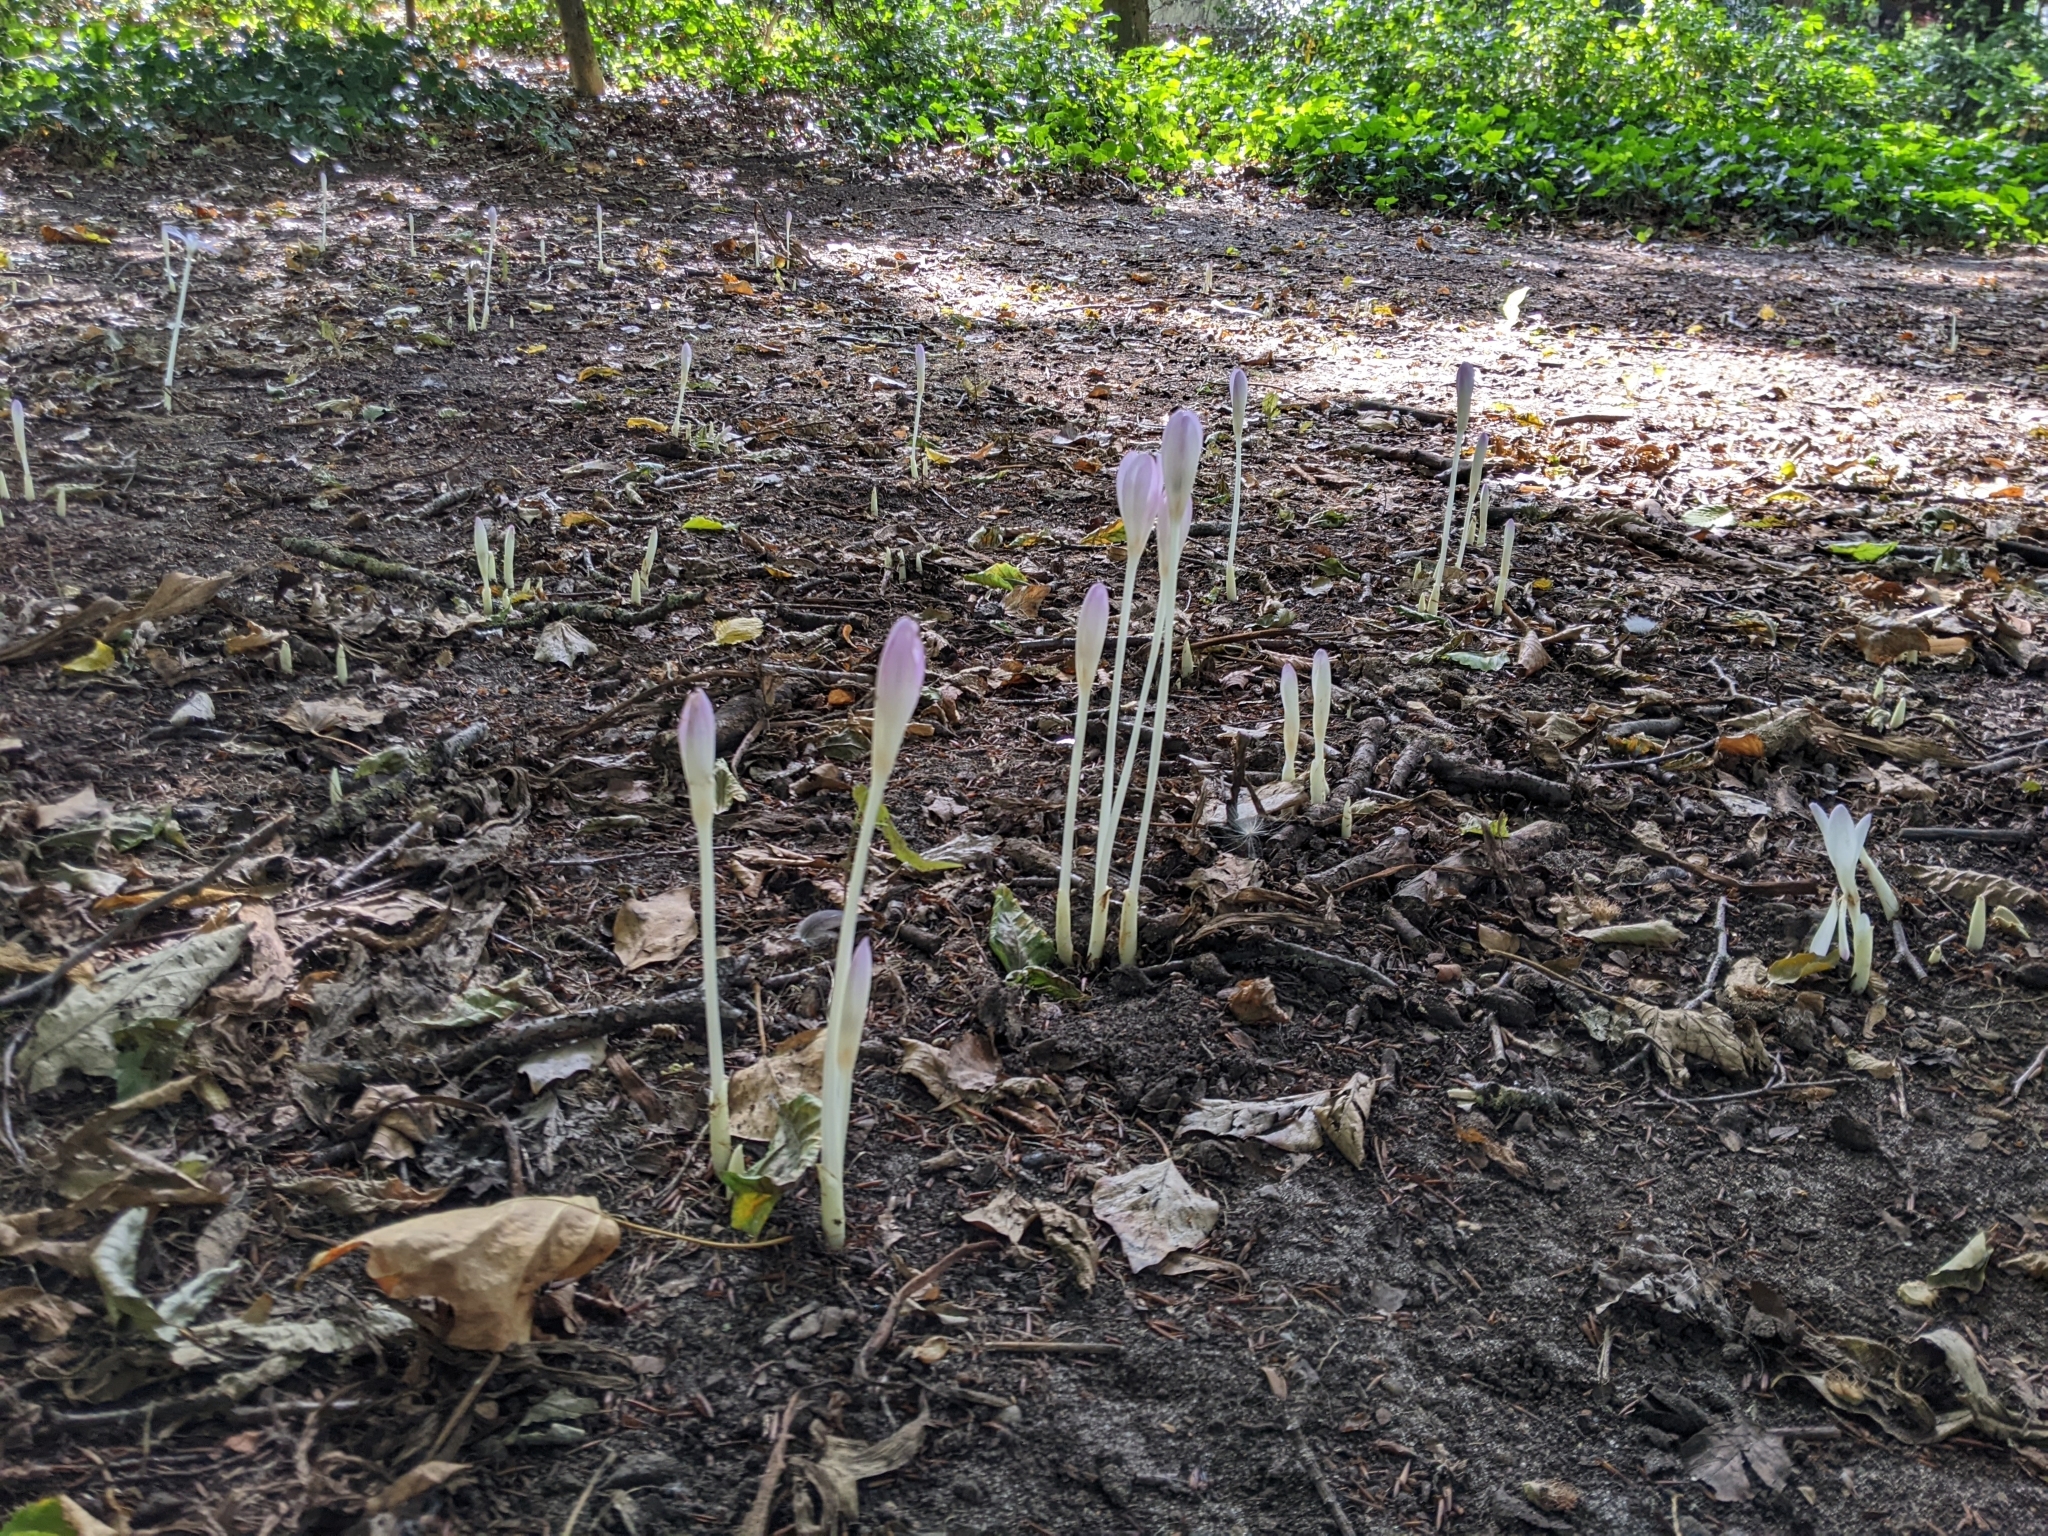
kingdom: Plantae
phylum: Tracheophyta
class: Liliopsida
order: Liliales
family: Colchicaceae
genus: Colchicum
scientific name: Colchicum autumnale
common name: Autumn crocus
